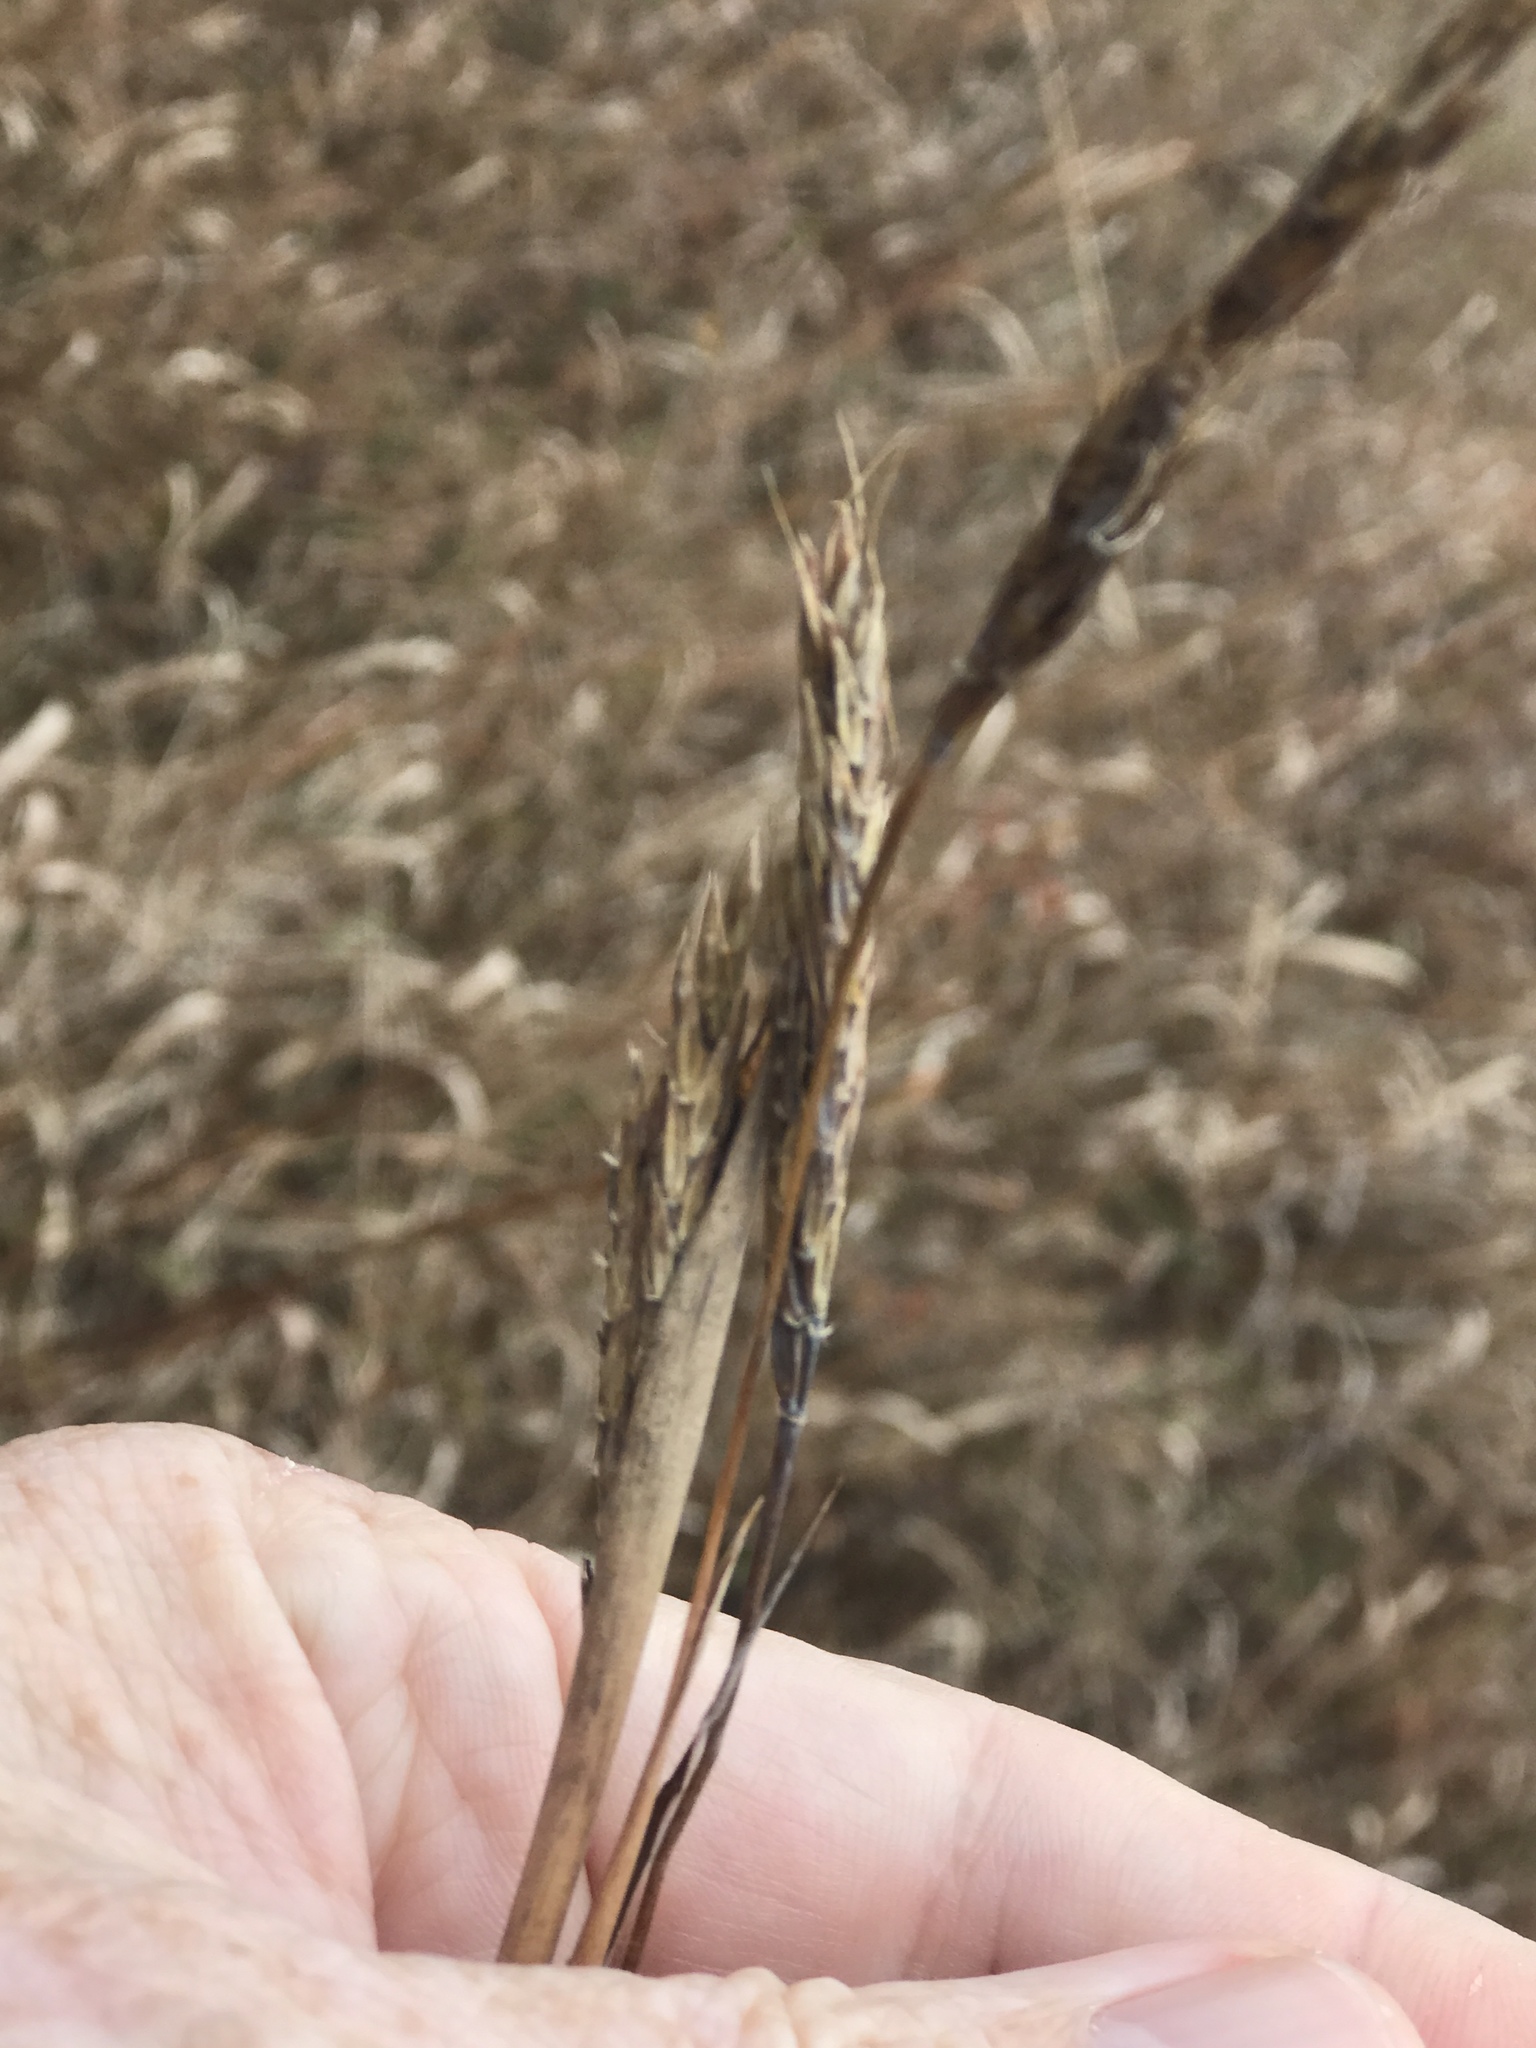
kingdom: Plantae
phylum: Tracheophyta
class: Liliopsida
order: Poales
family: Poaceae
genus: Andropogon
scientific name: Andropogon gerardi
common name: Big bluestem
